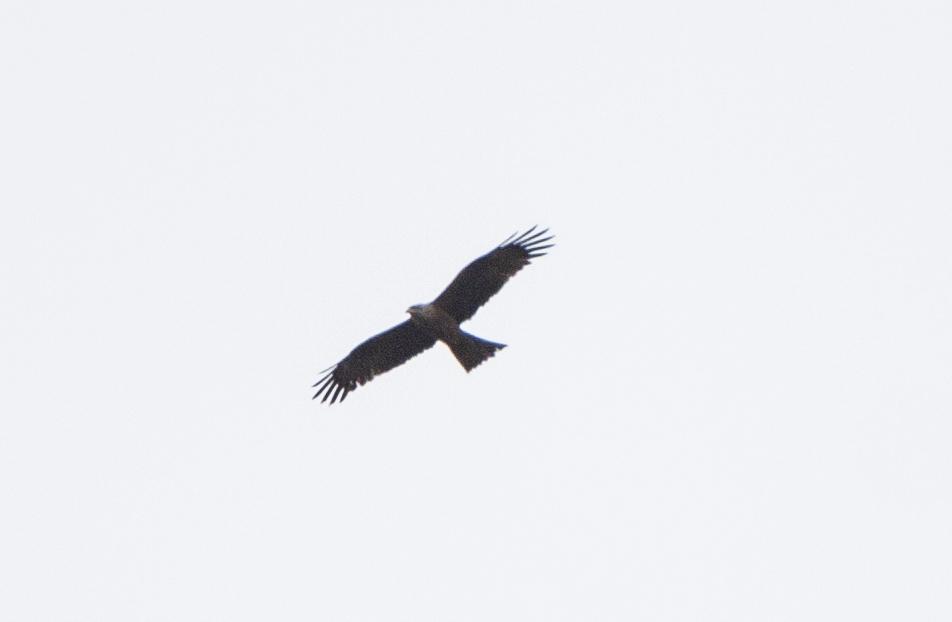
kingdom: Animalia
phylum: Chordata
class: Aves
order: Accipitriformes
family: Accipitridae
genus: Milvus
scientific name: Milvus migrans
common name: Black kite
